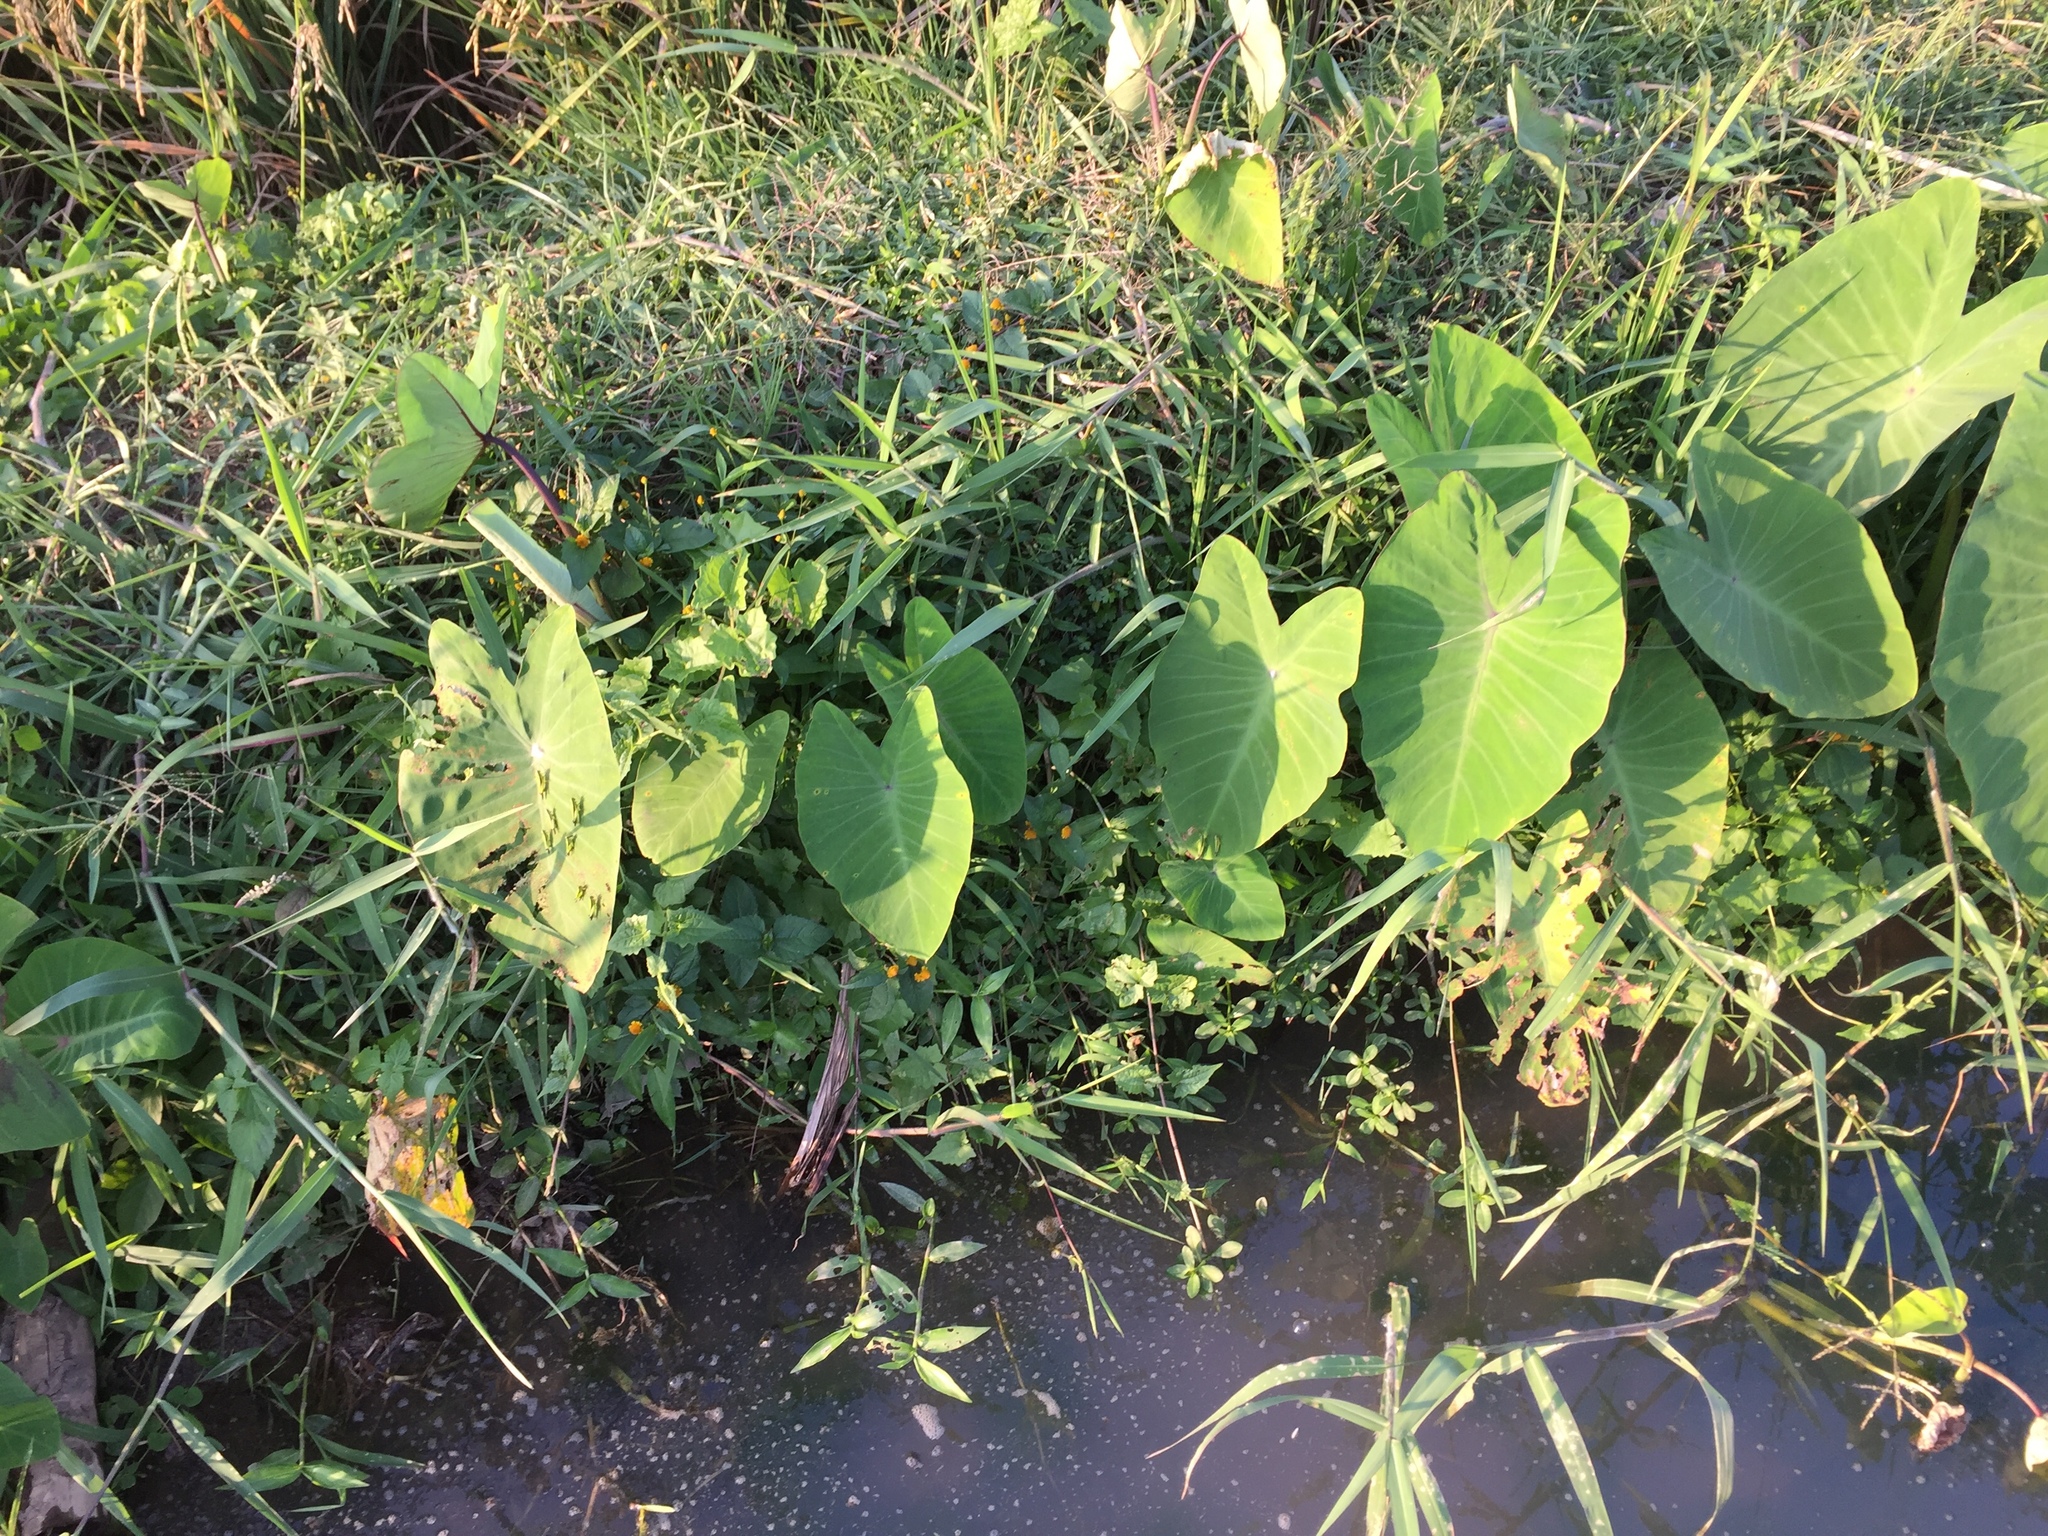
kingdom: Plantae
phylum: Tracheophyta
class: Liliopsida
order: Alismatales
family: Araceae
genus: Colocasia
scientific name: Colocasia esculenta
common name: Taro
